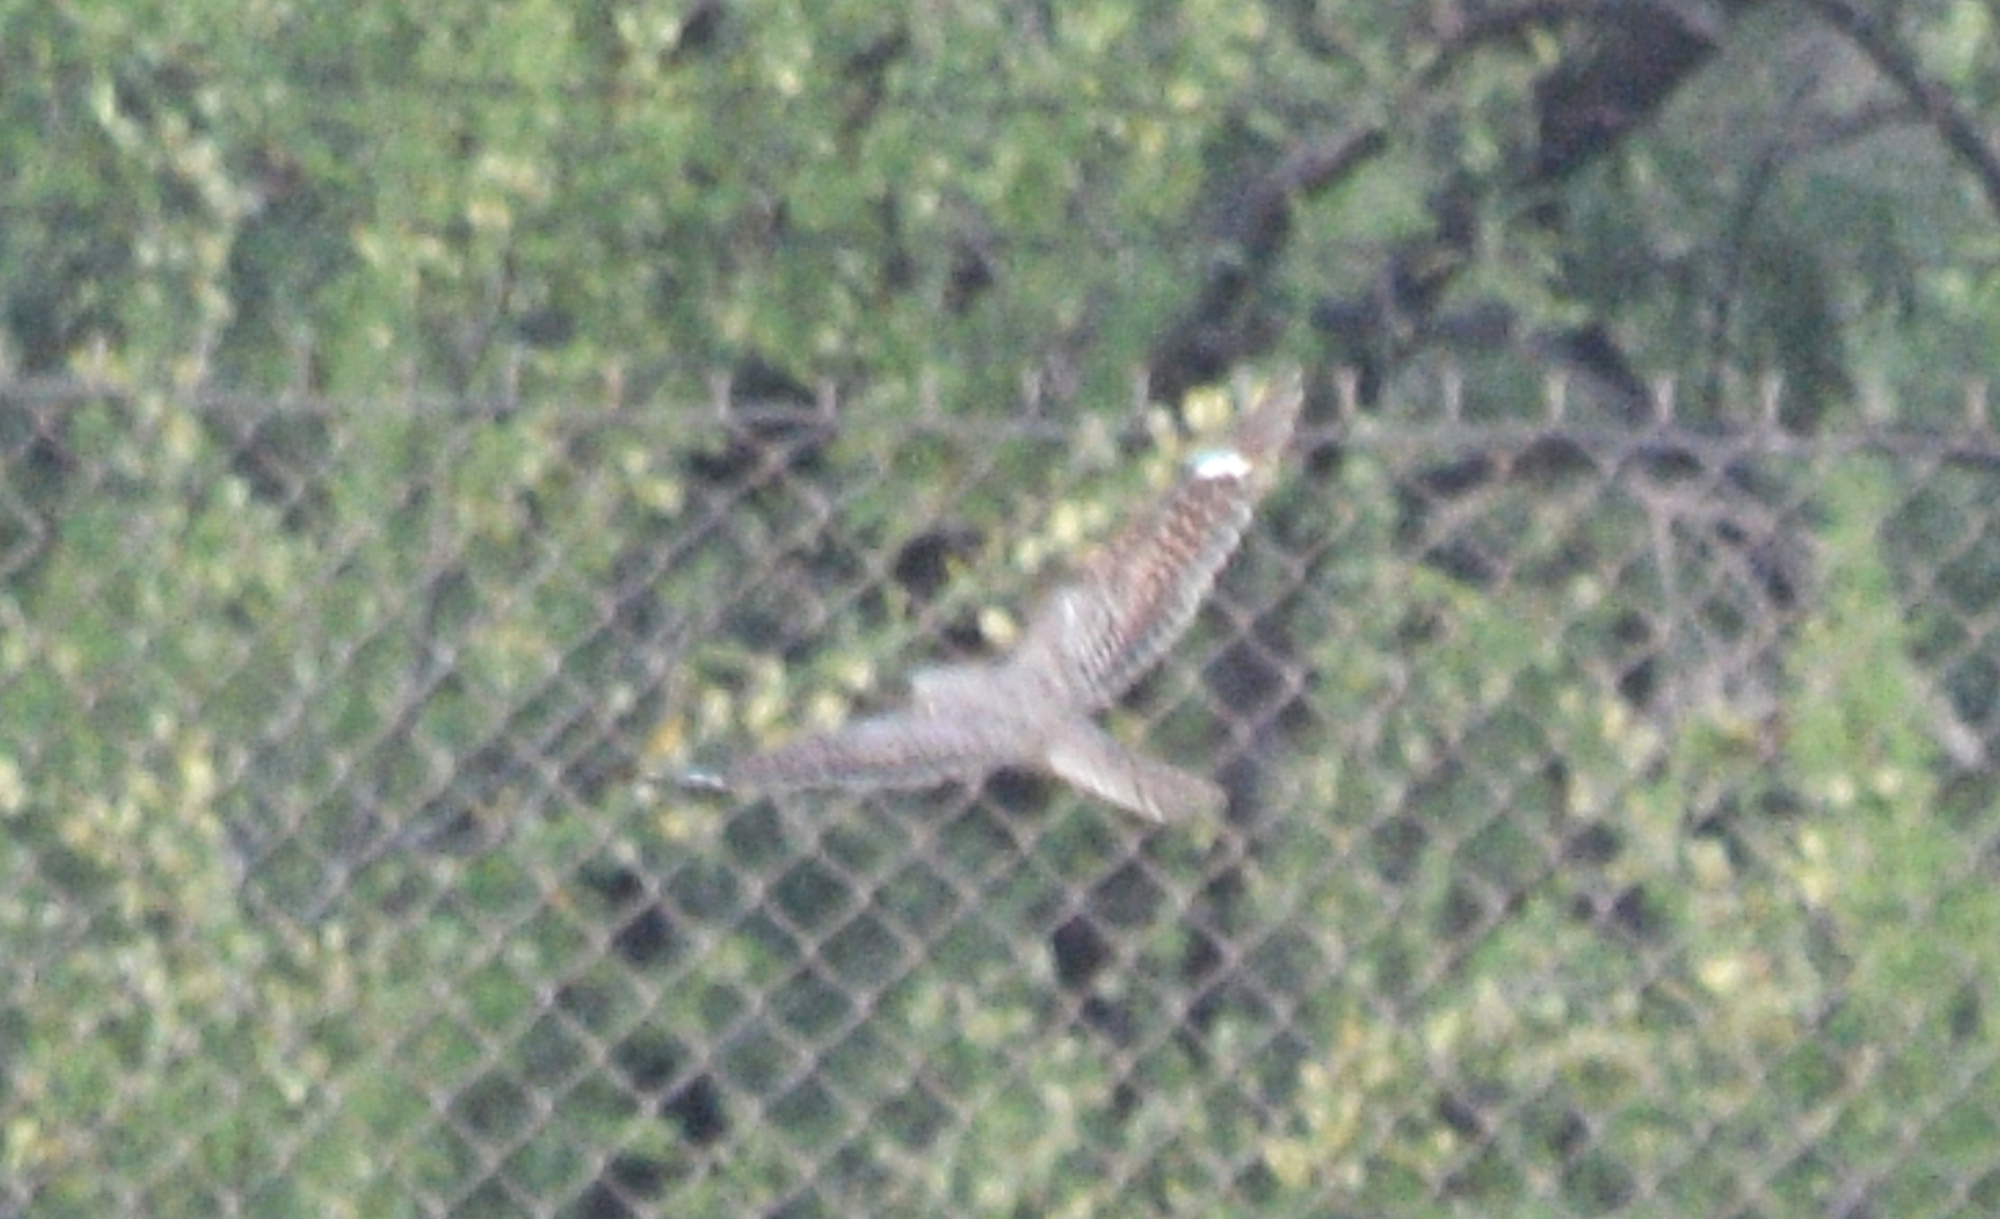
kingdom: Animalia
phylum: Chordata
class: Aves
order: Caprimulgiformes
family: Caprimulgidae
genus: Chordeiles
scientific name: Chordeiles acutipennis
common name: Lesser nighthawk
